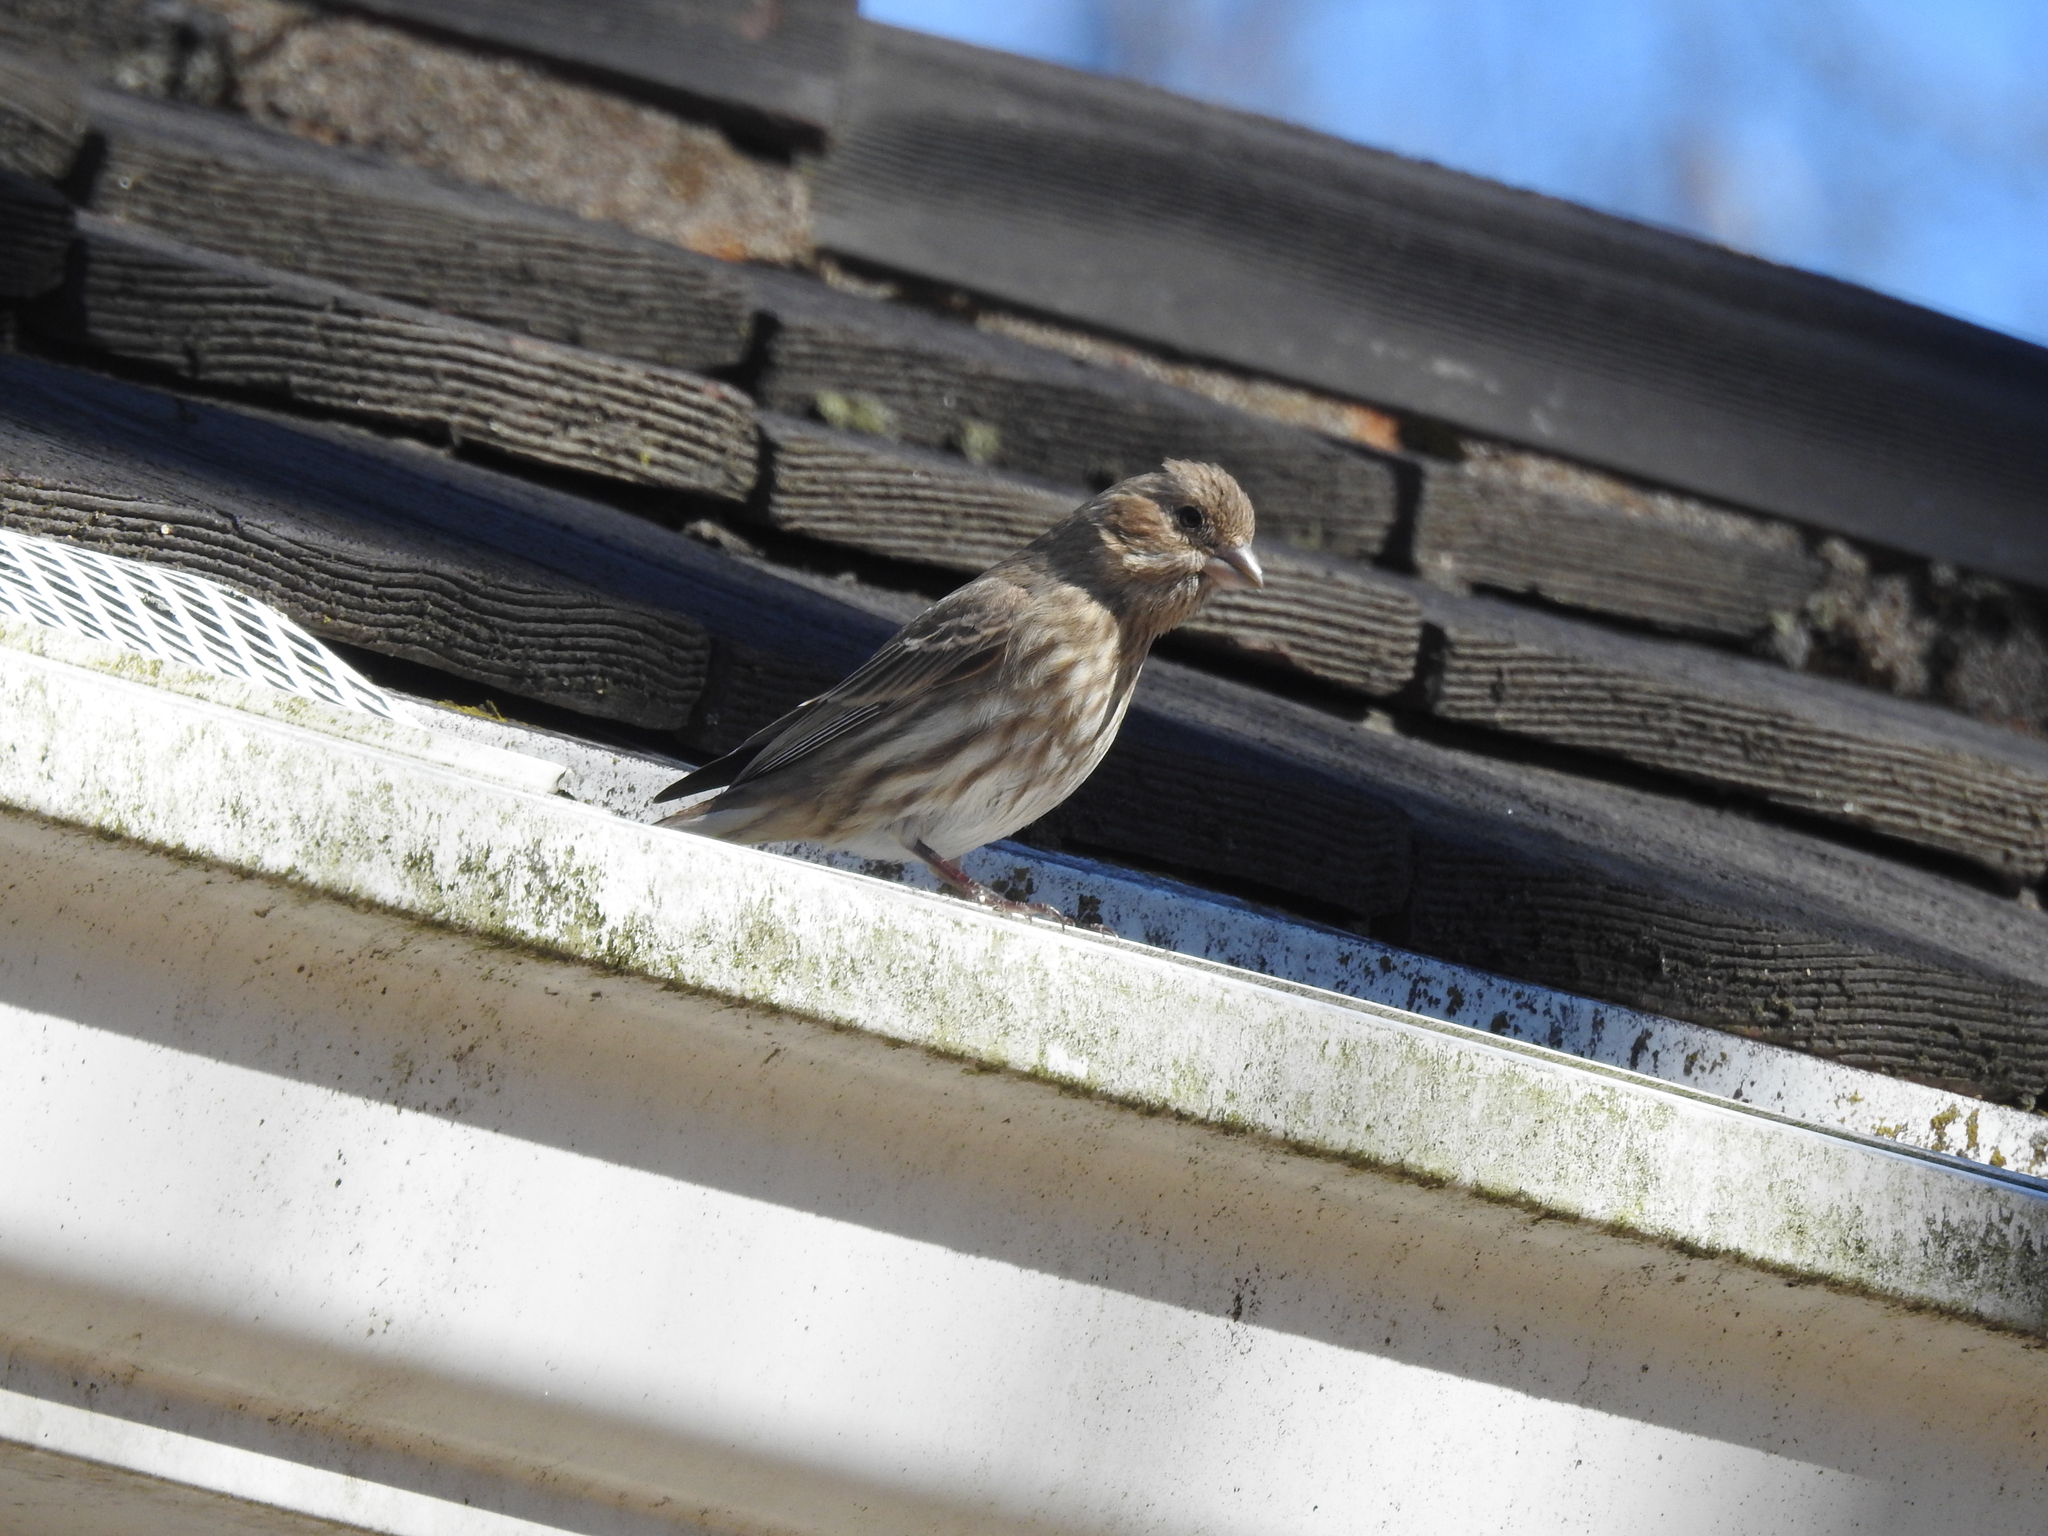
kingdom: Animalia
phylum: Chordata
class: Aves
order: Passeriformes
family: Fringillidae
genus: Haemorhous
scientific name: Haemorhous mexicanus
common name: House finch
